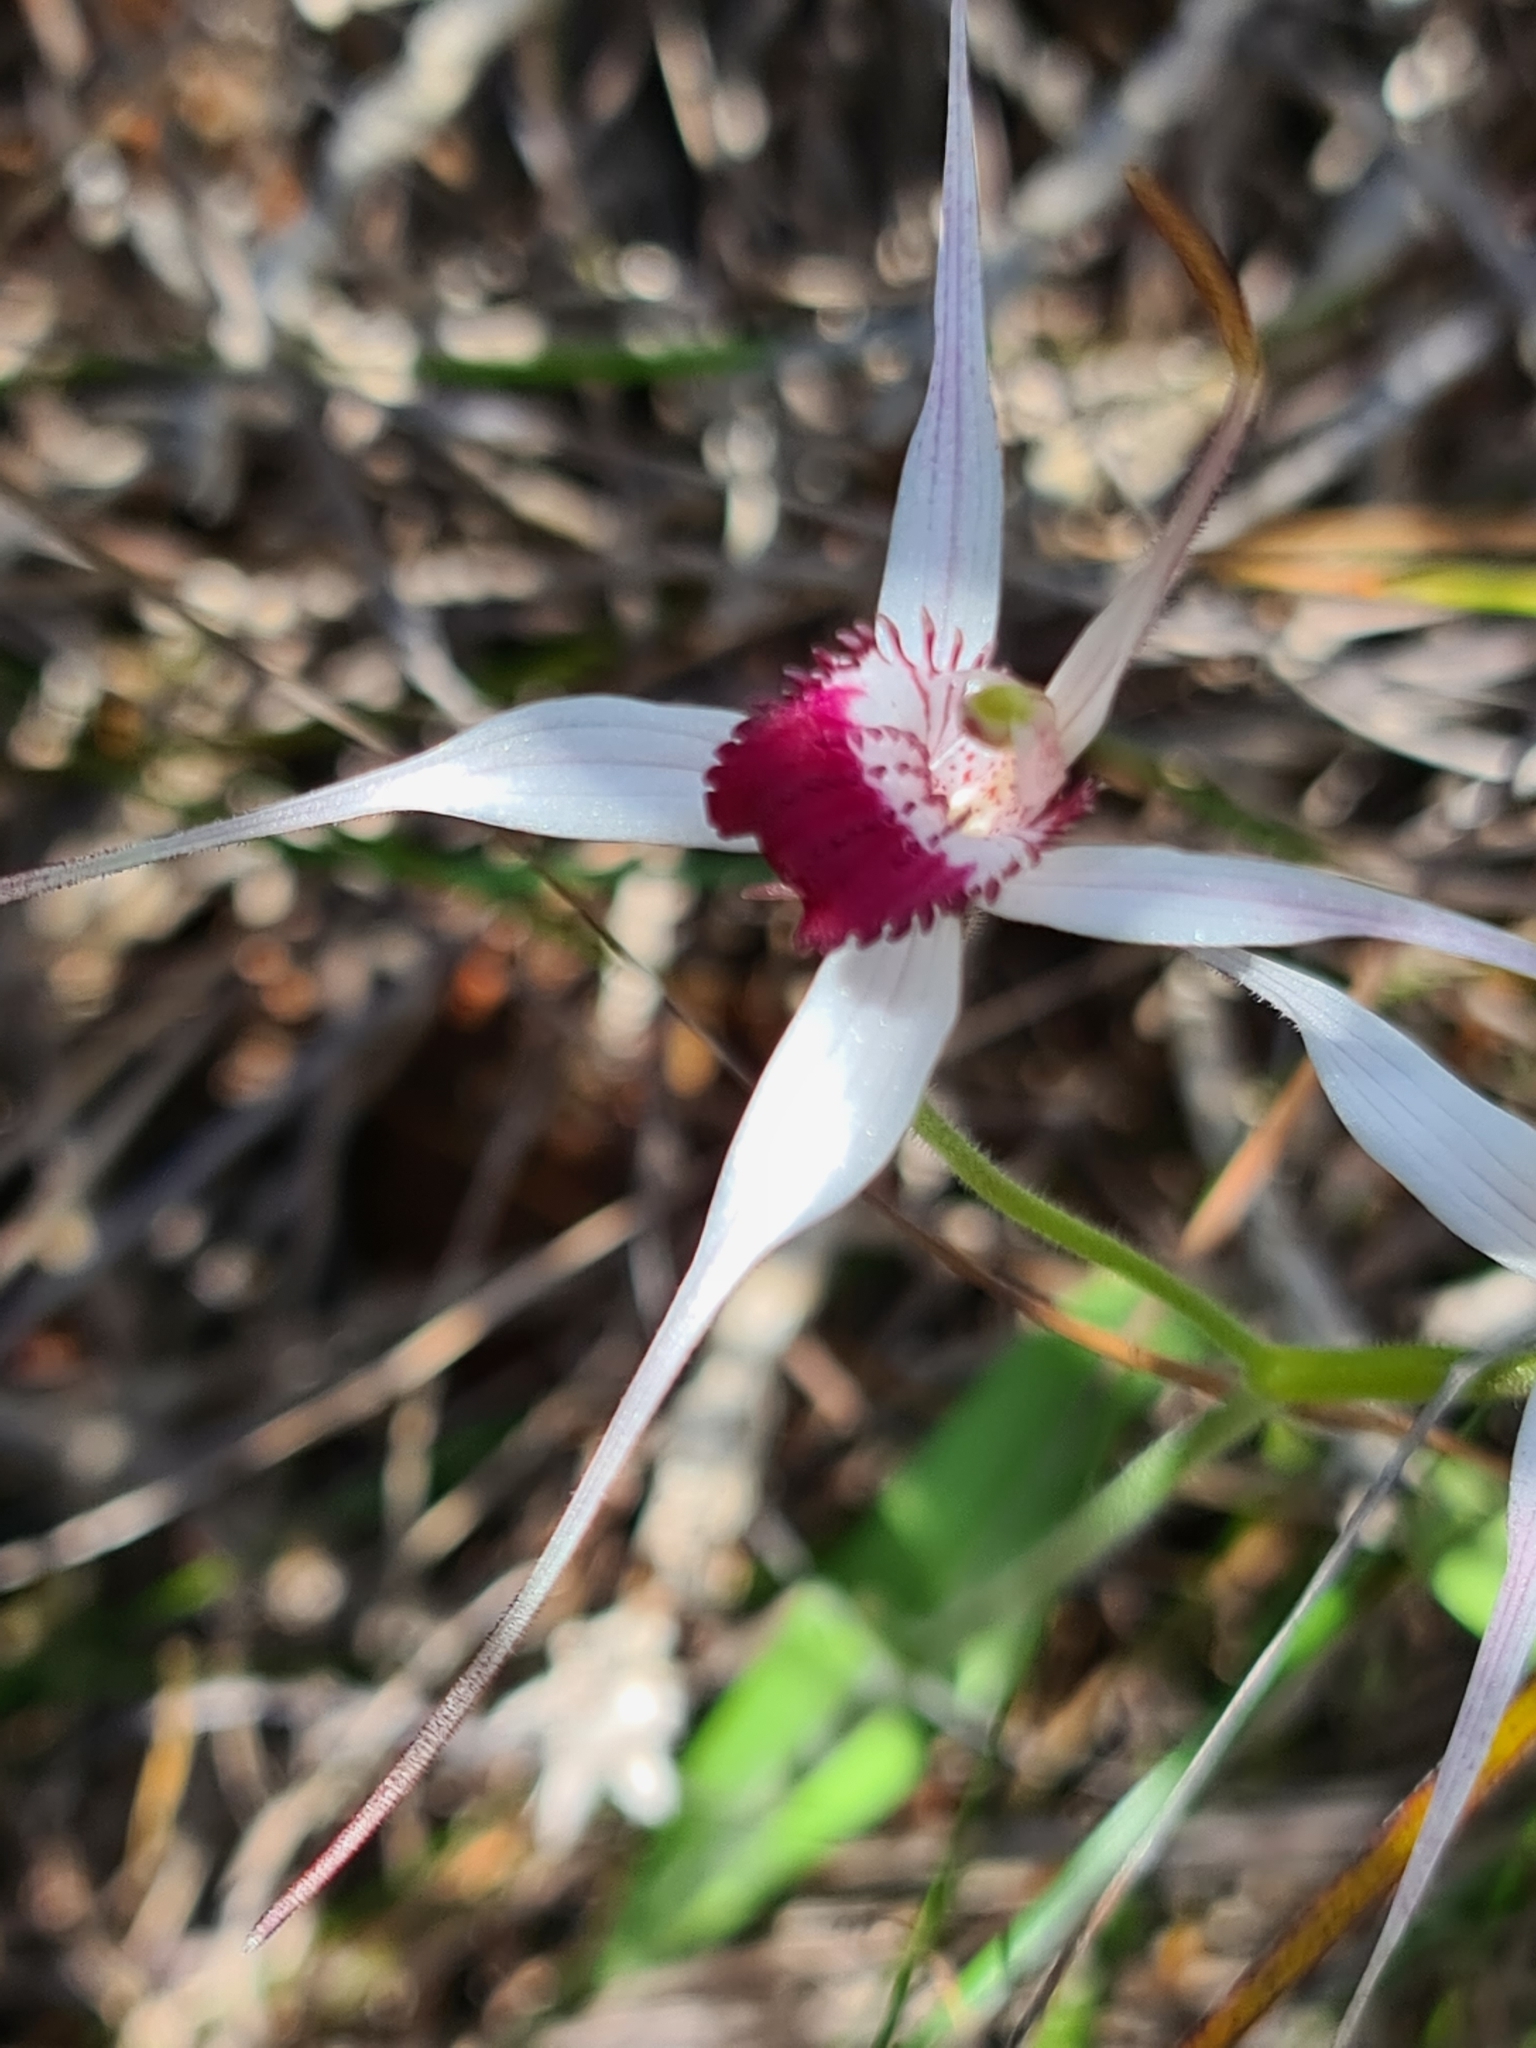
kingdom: Plantae
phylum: Tracheophyta
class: Liliopsida
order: Asparagales
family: Orchidaceae
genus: Caladenia
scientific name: Caladenia nivalis
